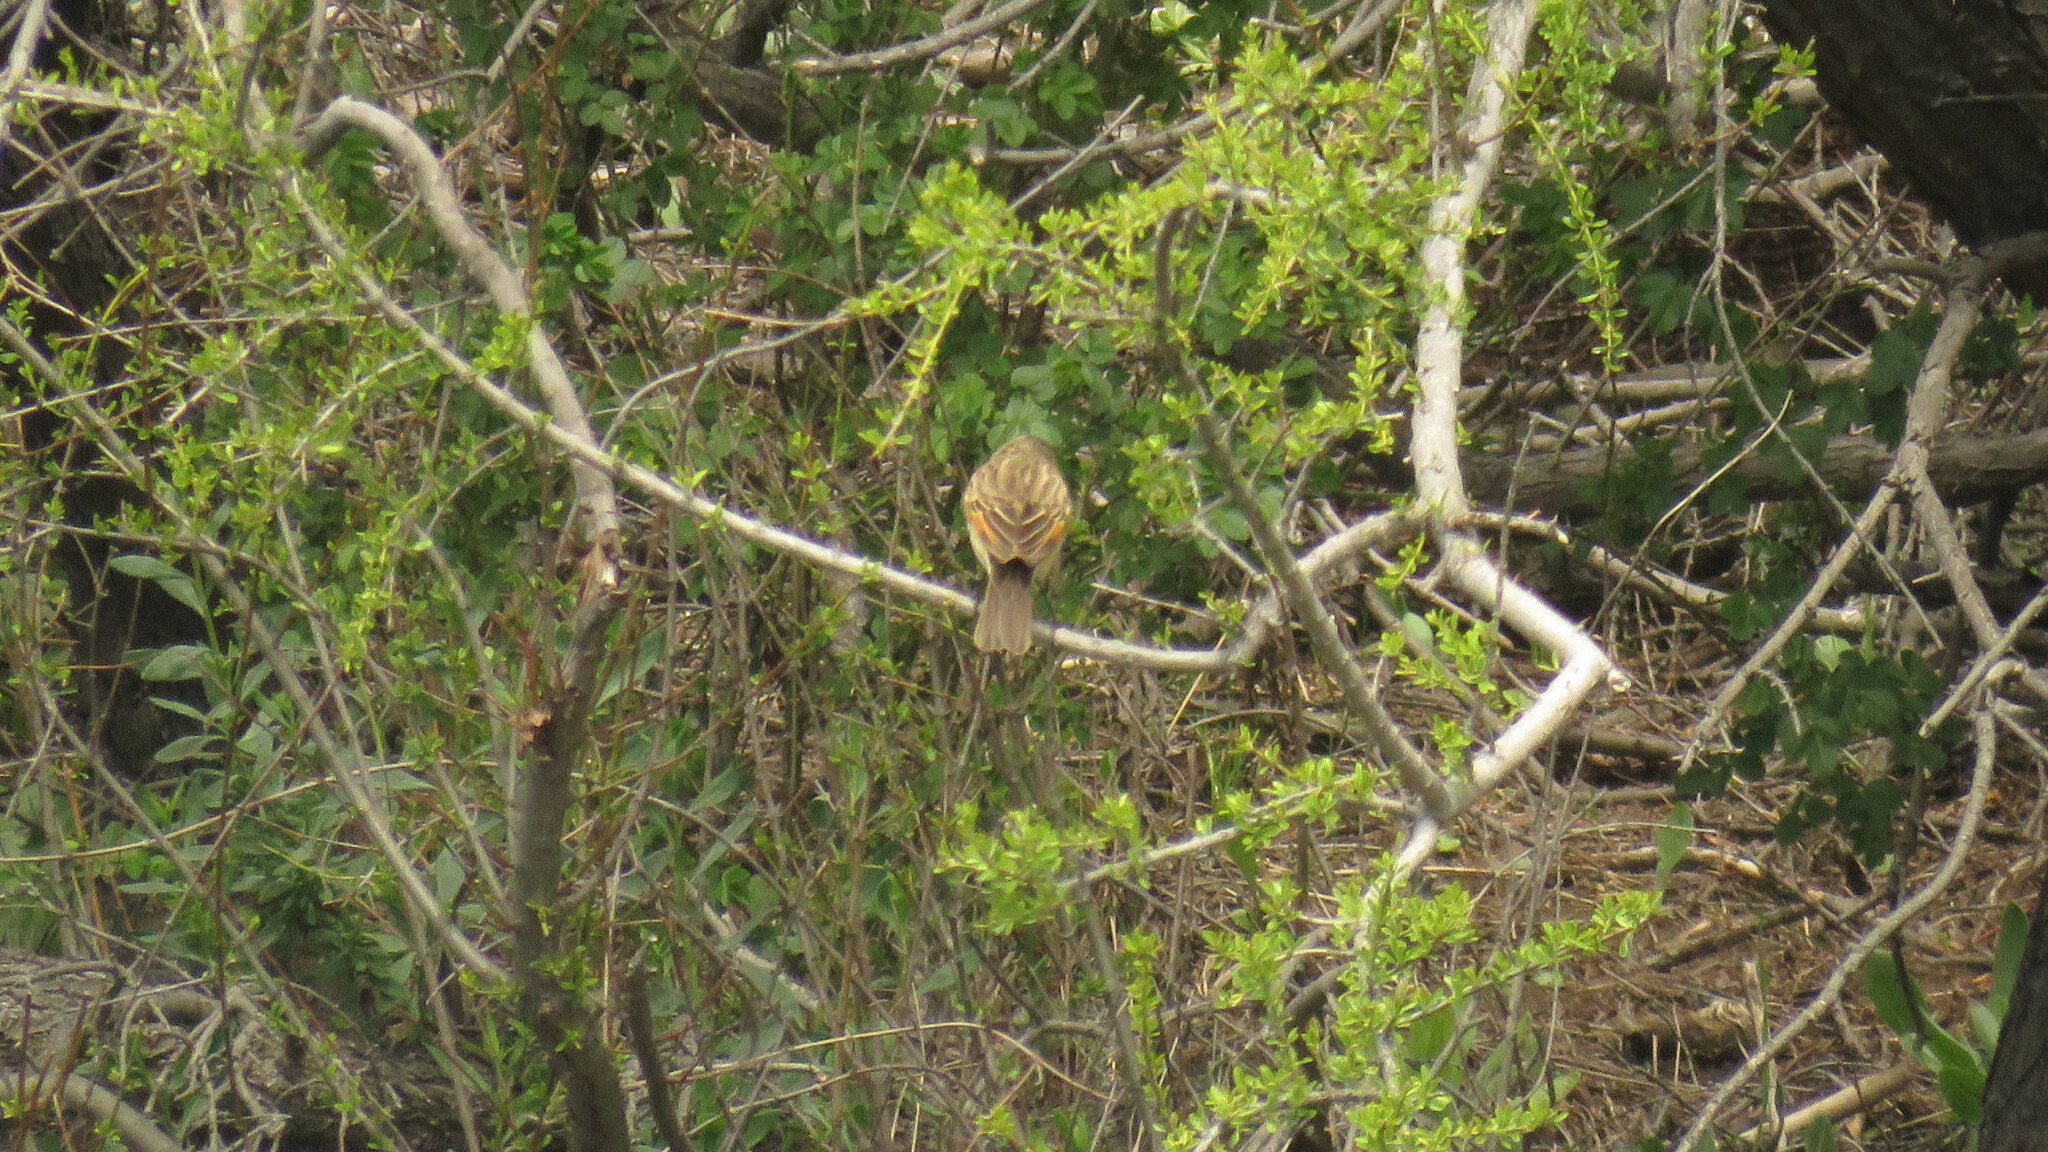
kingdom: Animalia
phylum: Chordata
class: Aves
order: Passeriformes
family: Tyrannidae
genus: Hymenops
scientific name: Hymenops perspicillatus
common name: Spectacled tyrant
